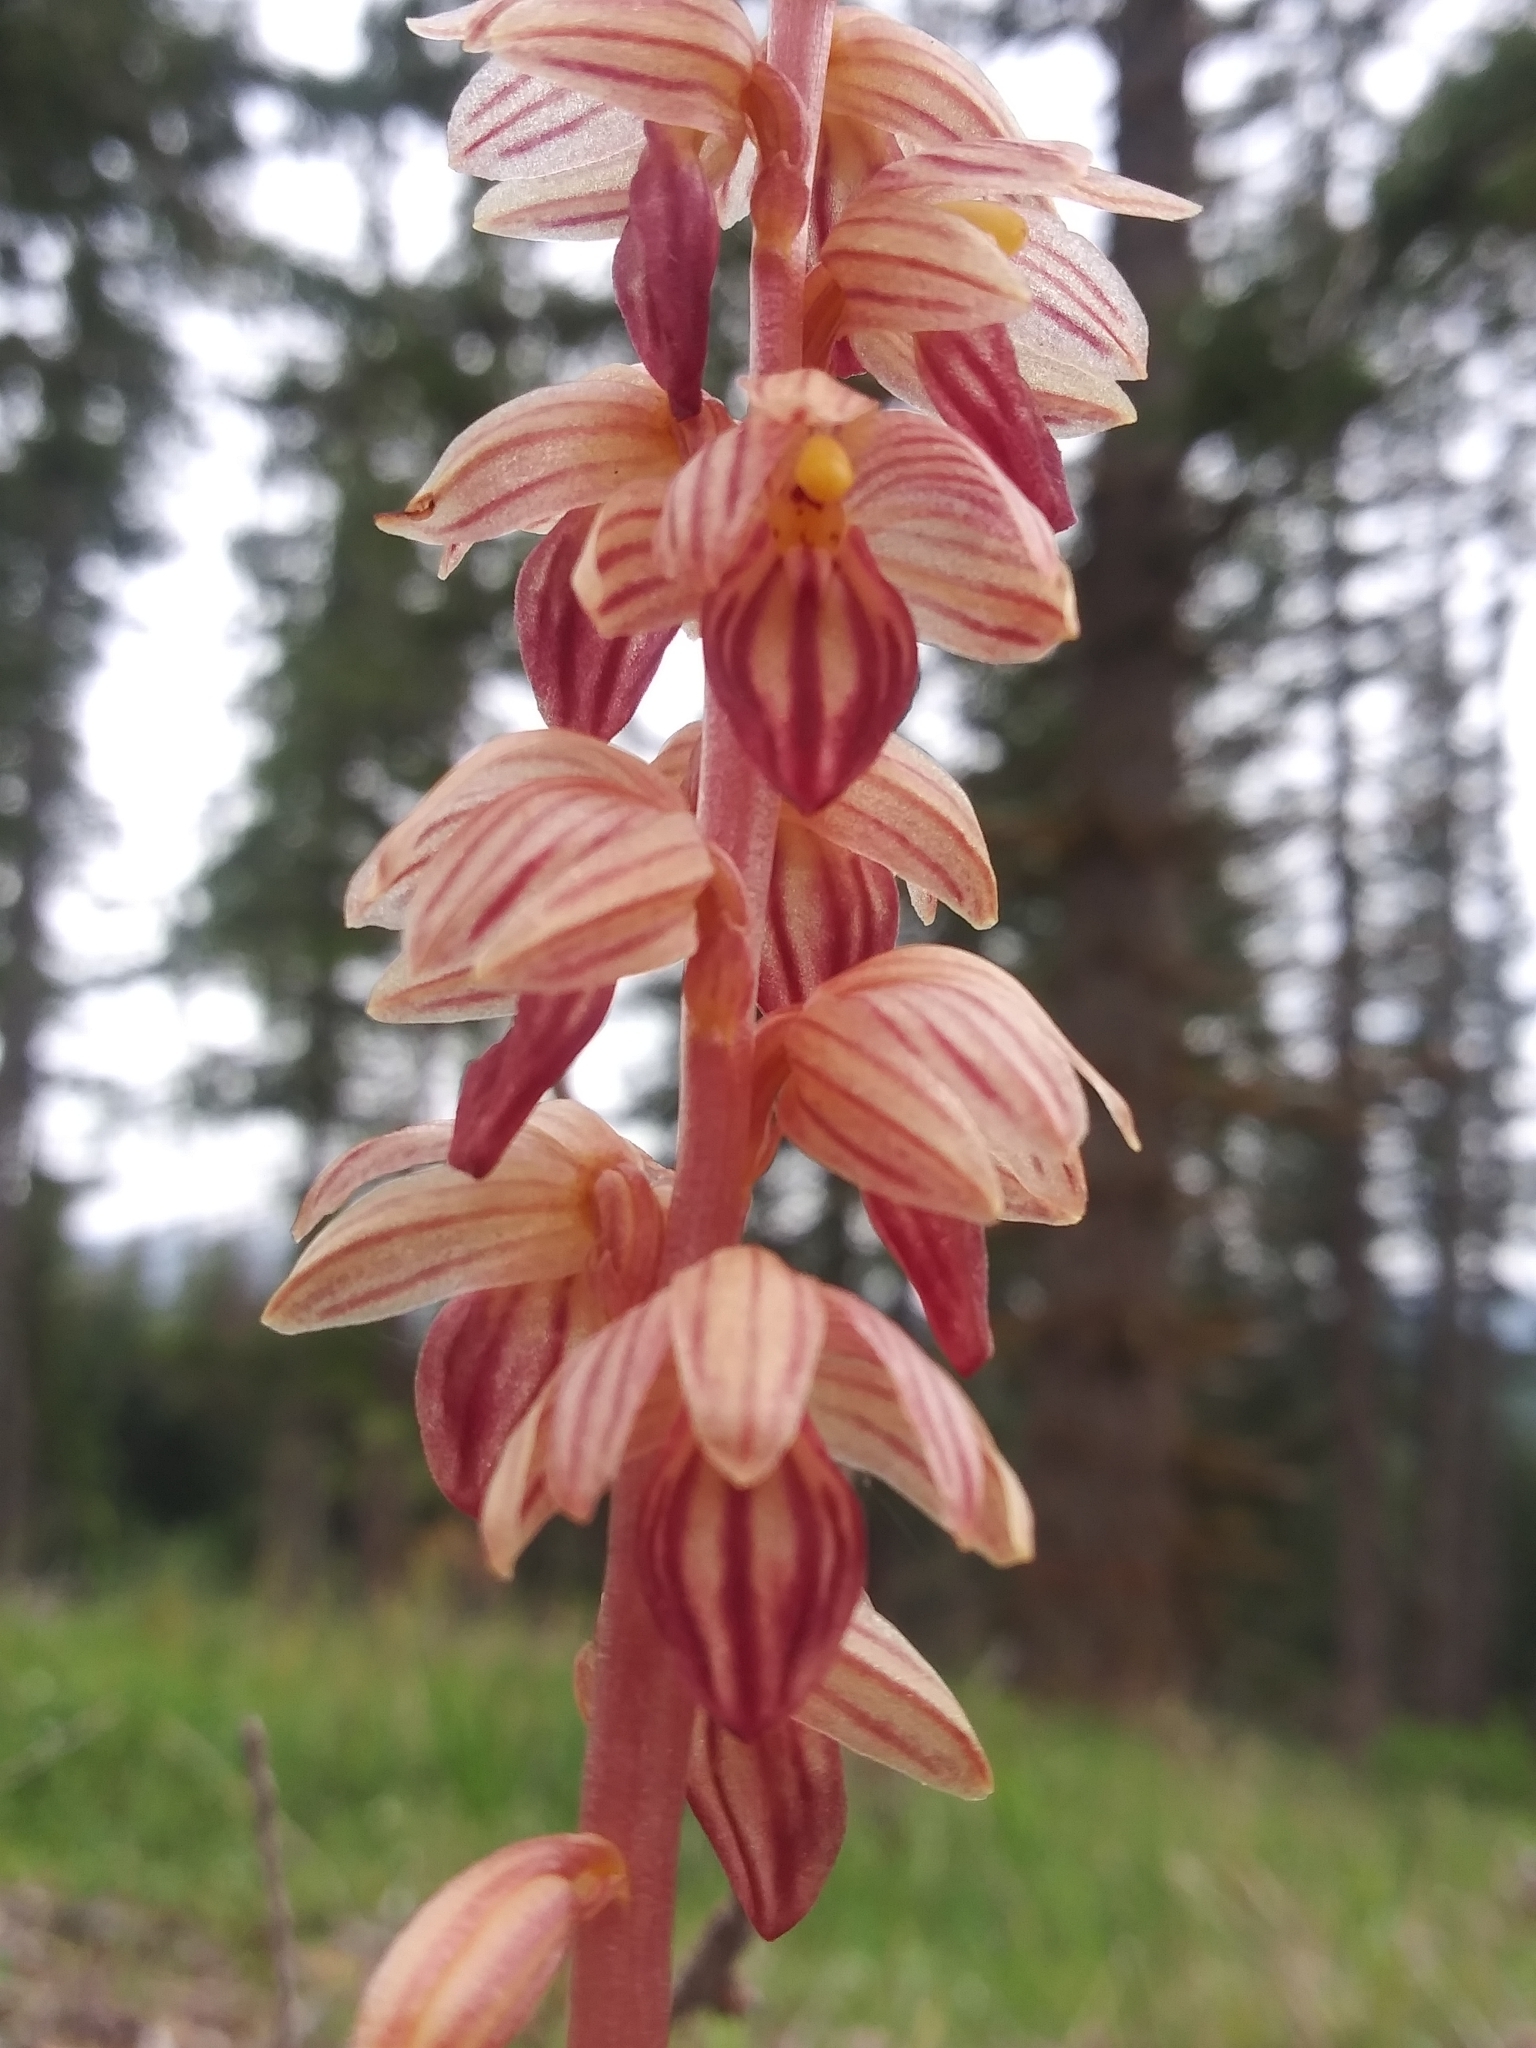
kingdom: Plantae
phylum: Tracheophyta
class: Liliopsida
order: Asparagales
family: Orchidaceae
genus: Corallorhiza
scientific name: Corallorhiza striata
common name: Hooded coralroot
